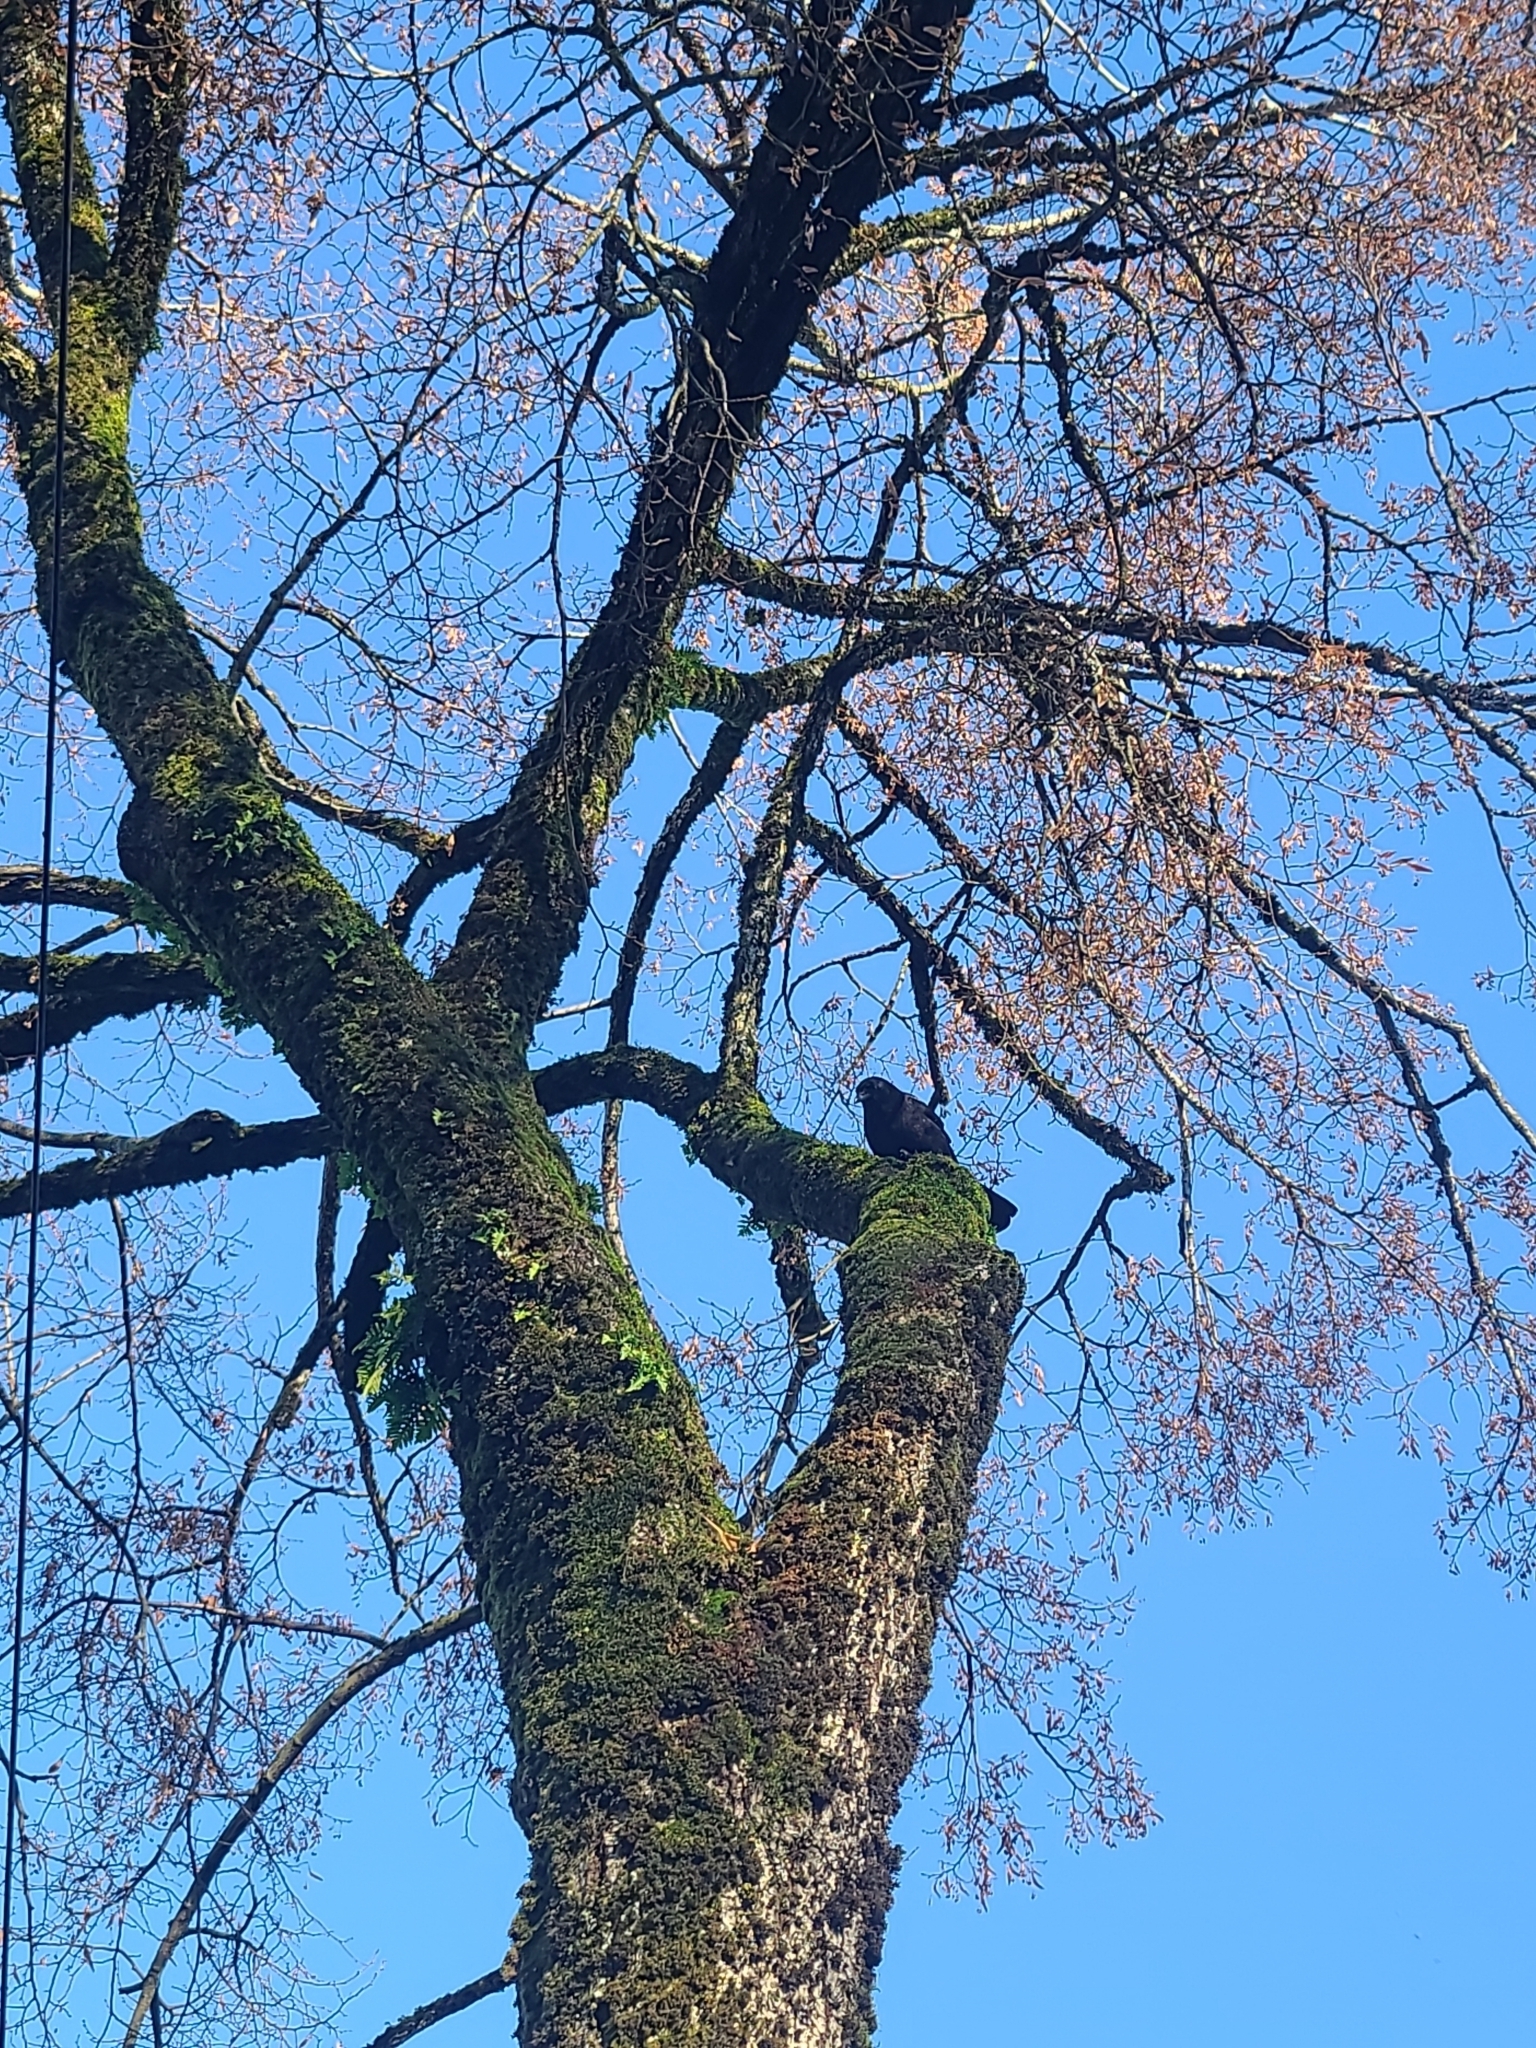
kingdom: Animalia
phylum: Chordata
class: Aves
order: Passeriformes
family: Corvidae
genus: Corvus
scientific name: Corvus brachyrhynchos
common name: American crow
